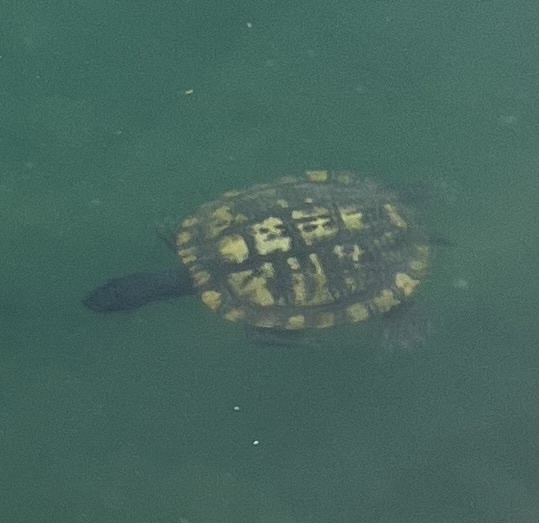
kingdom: Animalia
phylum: Chordata
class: Testudines
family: Emydidae
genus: Trachemys
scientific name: Trachemys scripta
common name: Slider
